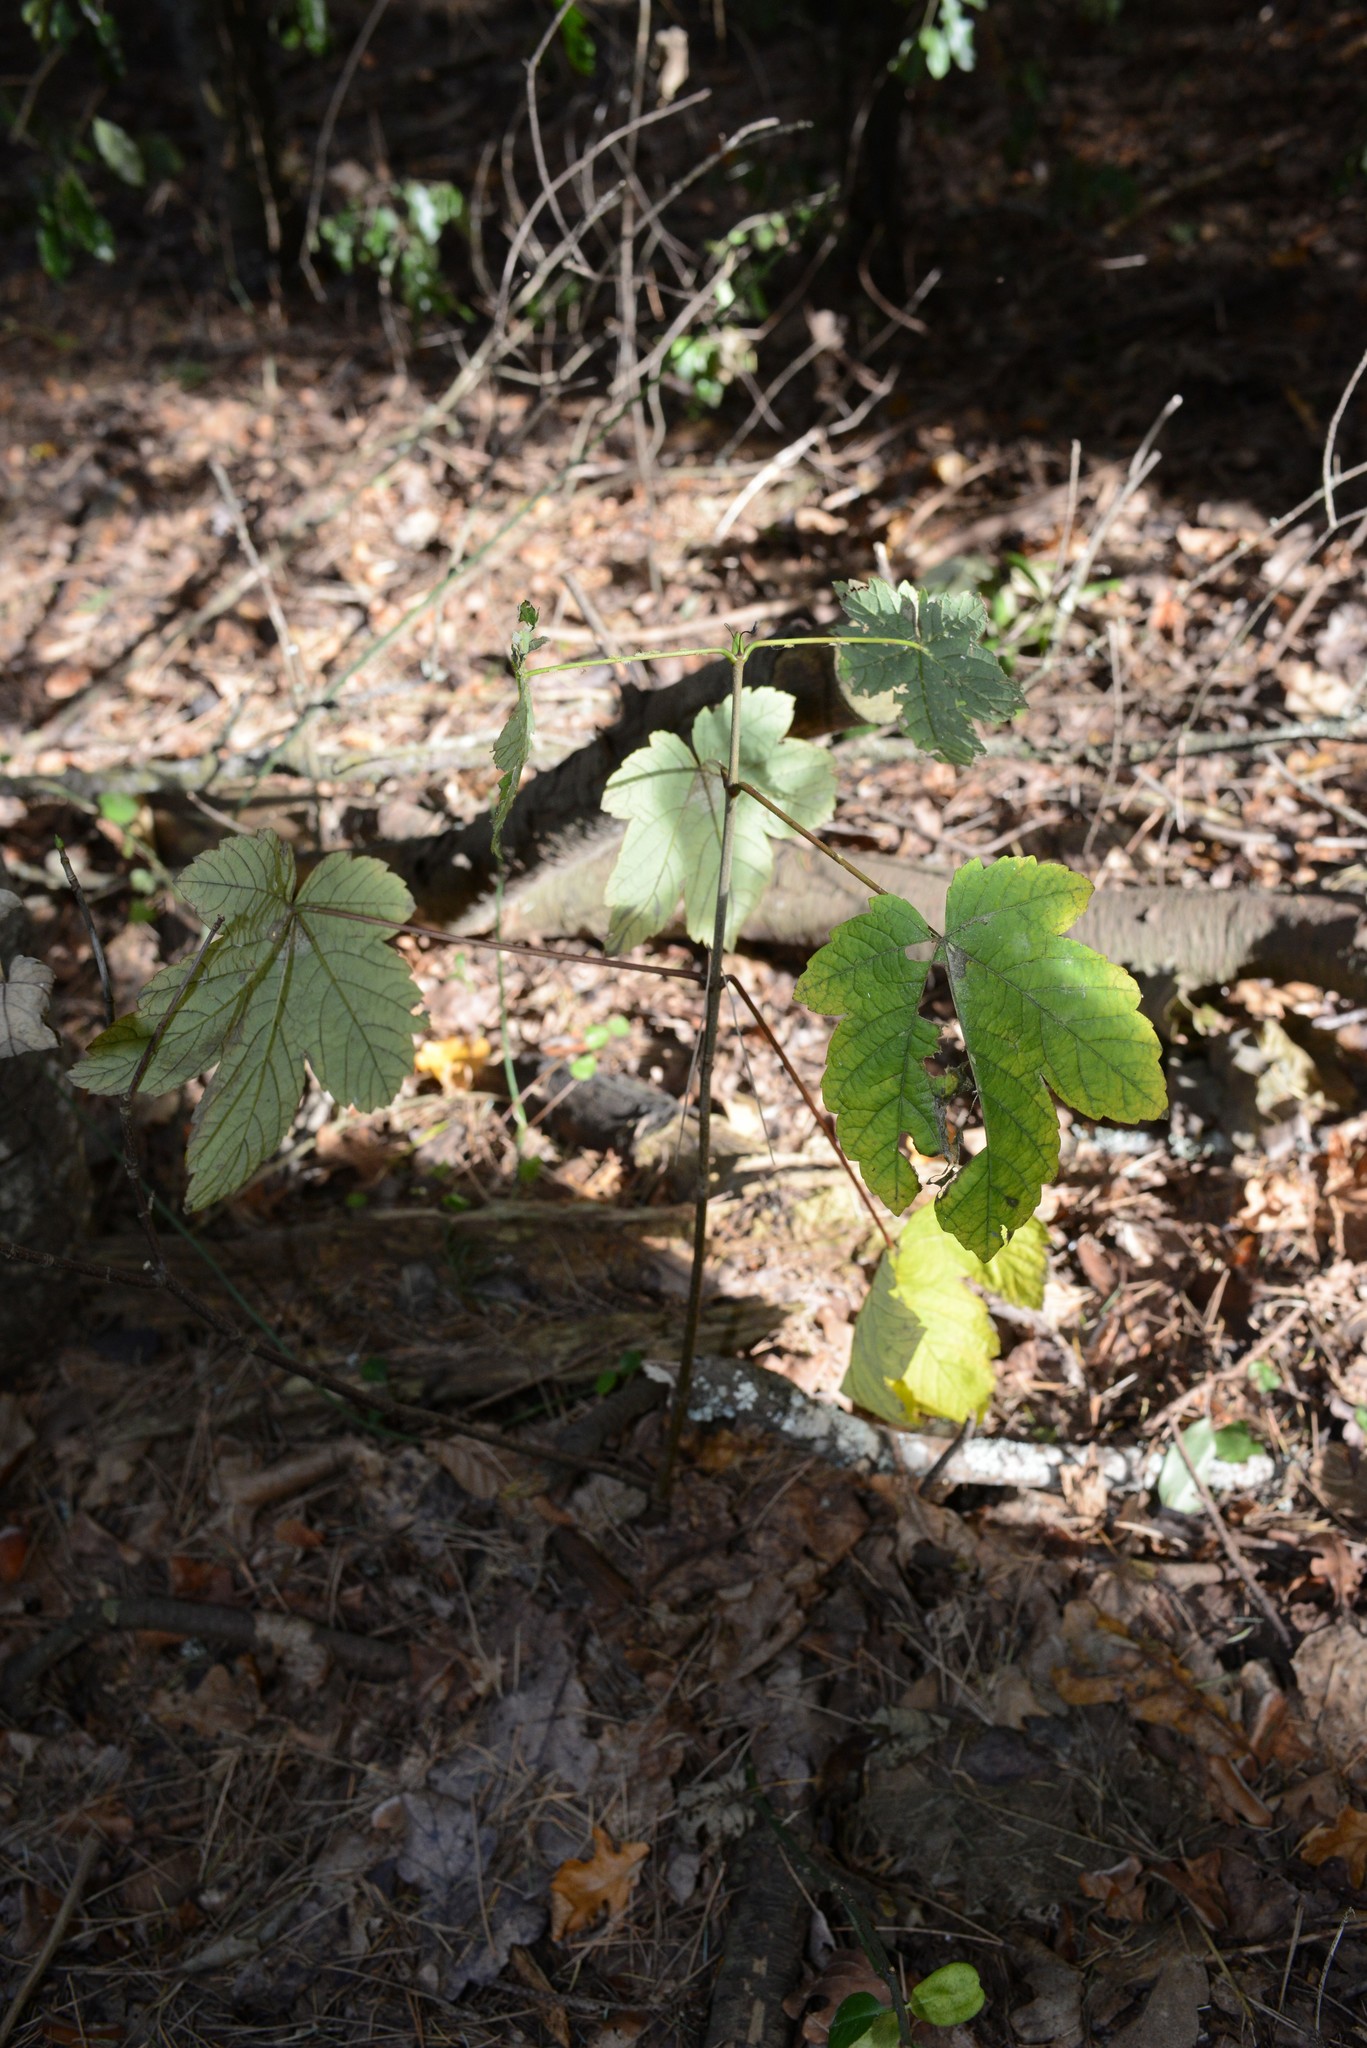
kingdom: Plantae
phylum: Tracheophyta
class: Magnoliopsida
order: Sapindales
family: Sapindaceae
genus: Acer
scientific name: Acer pseudoplatanus
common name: Sycamore
